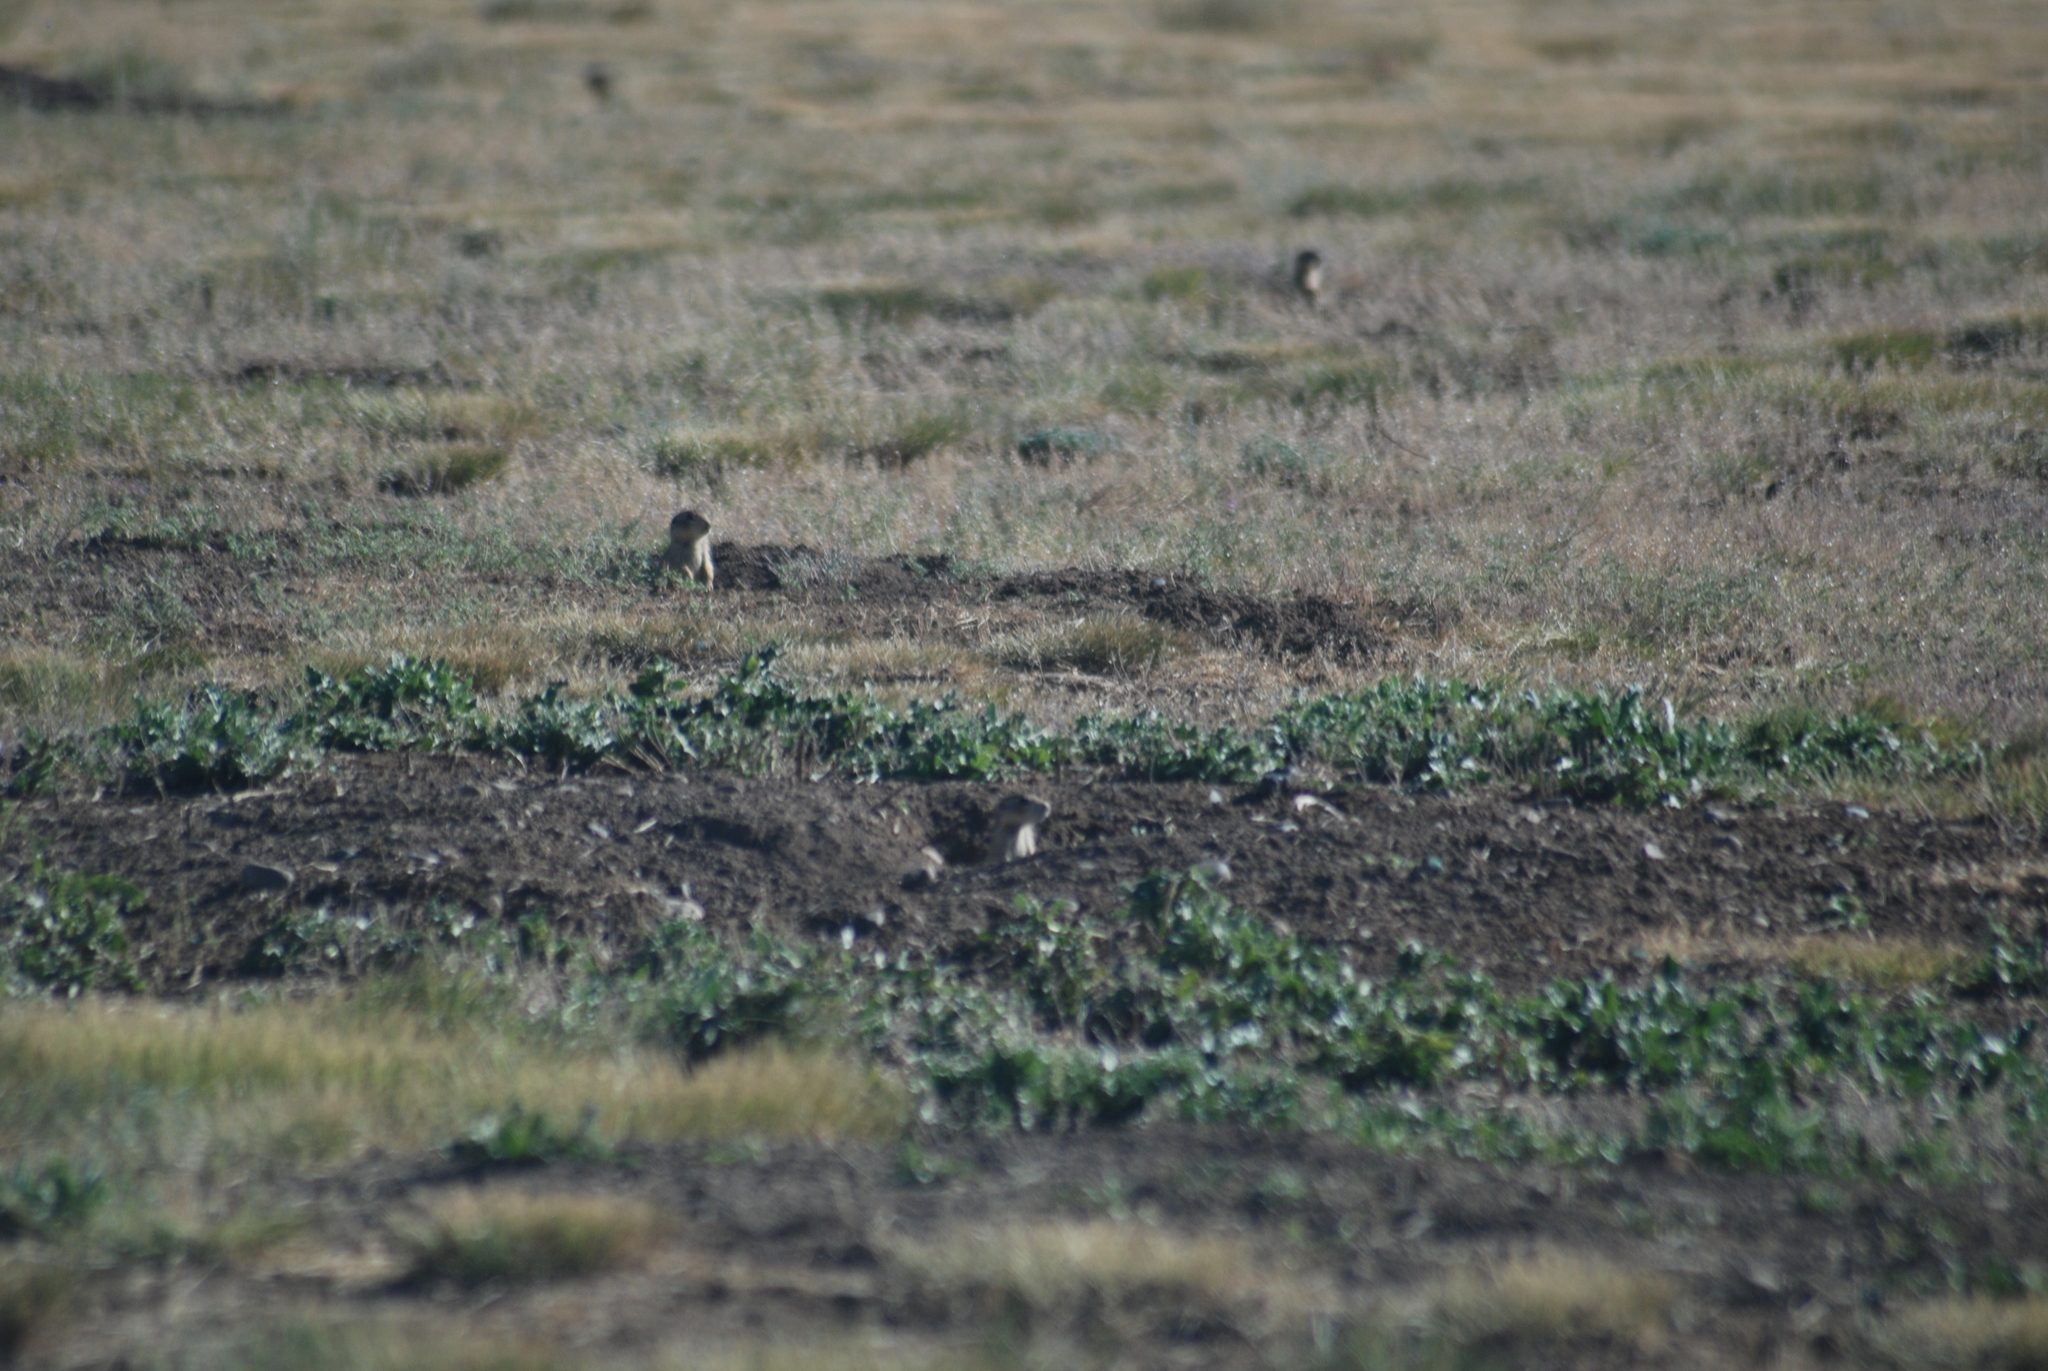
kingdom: Animalia
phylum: Chordata
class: Mammalia
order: Rodentia
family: Sciuridae
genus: Cynomys
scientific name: Cynomys gunnisoni
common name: Gunnison's prairie dog
